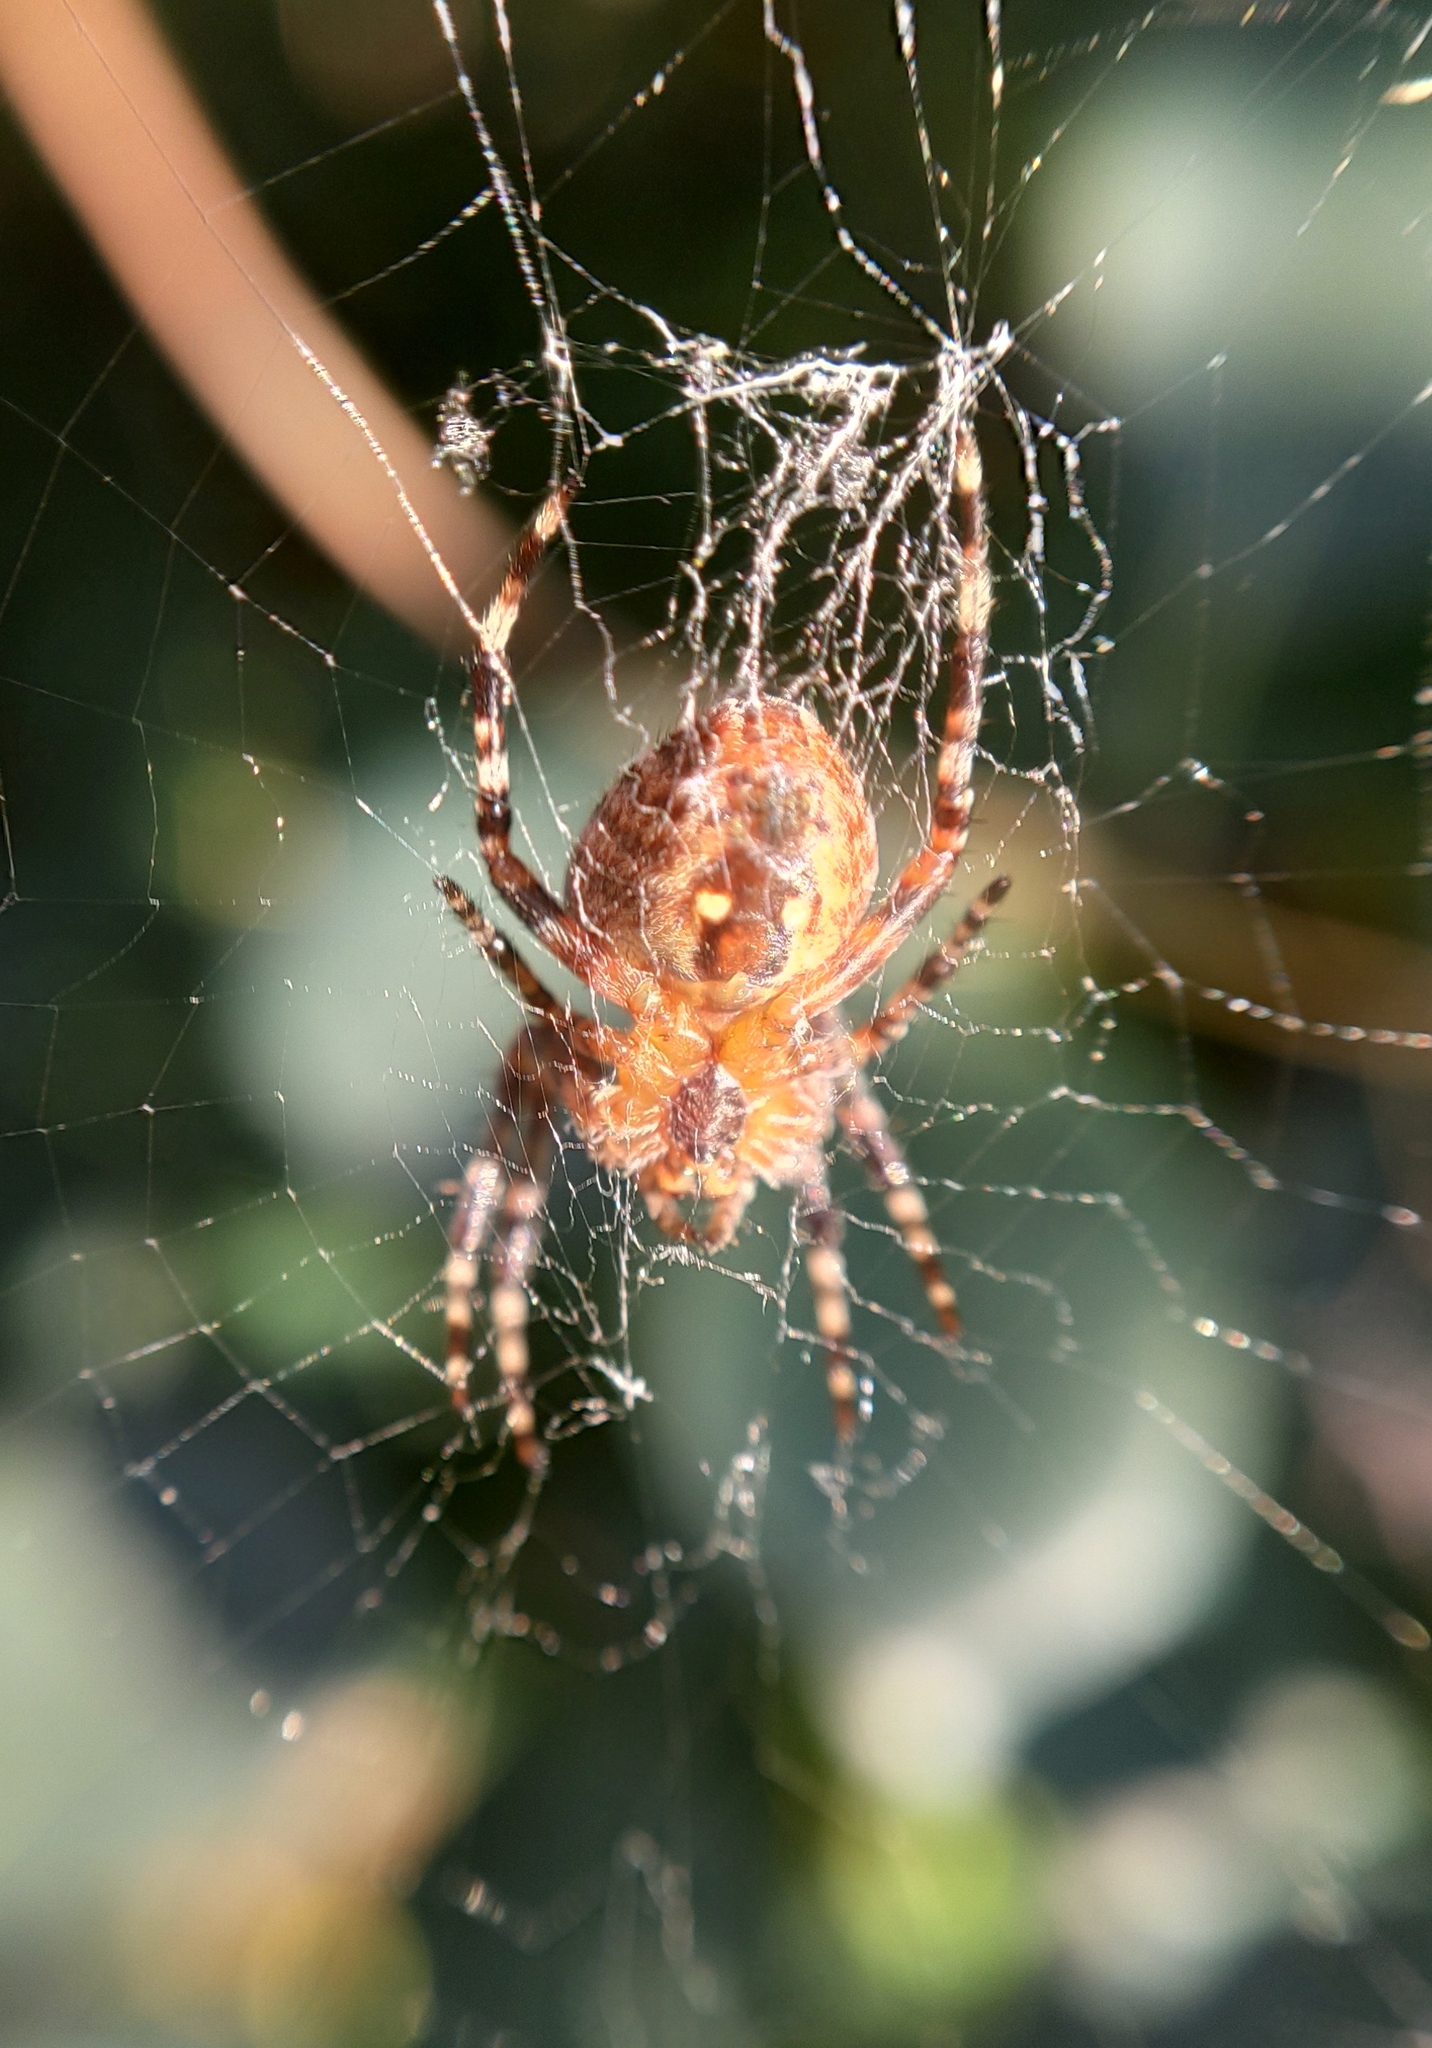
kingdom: Animalia
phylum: Arthropoda
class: Arachnida
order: Araneae
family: Araneidae
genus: Araneus
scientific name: Araneus diadematus
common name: Cross orbweaver
